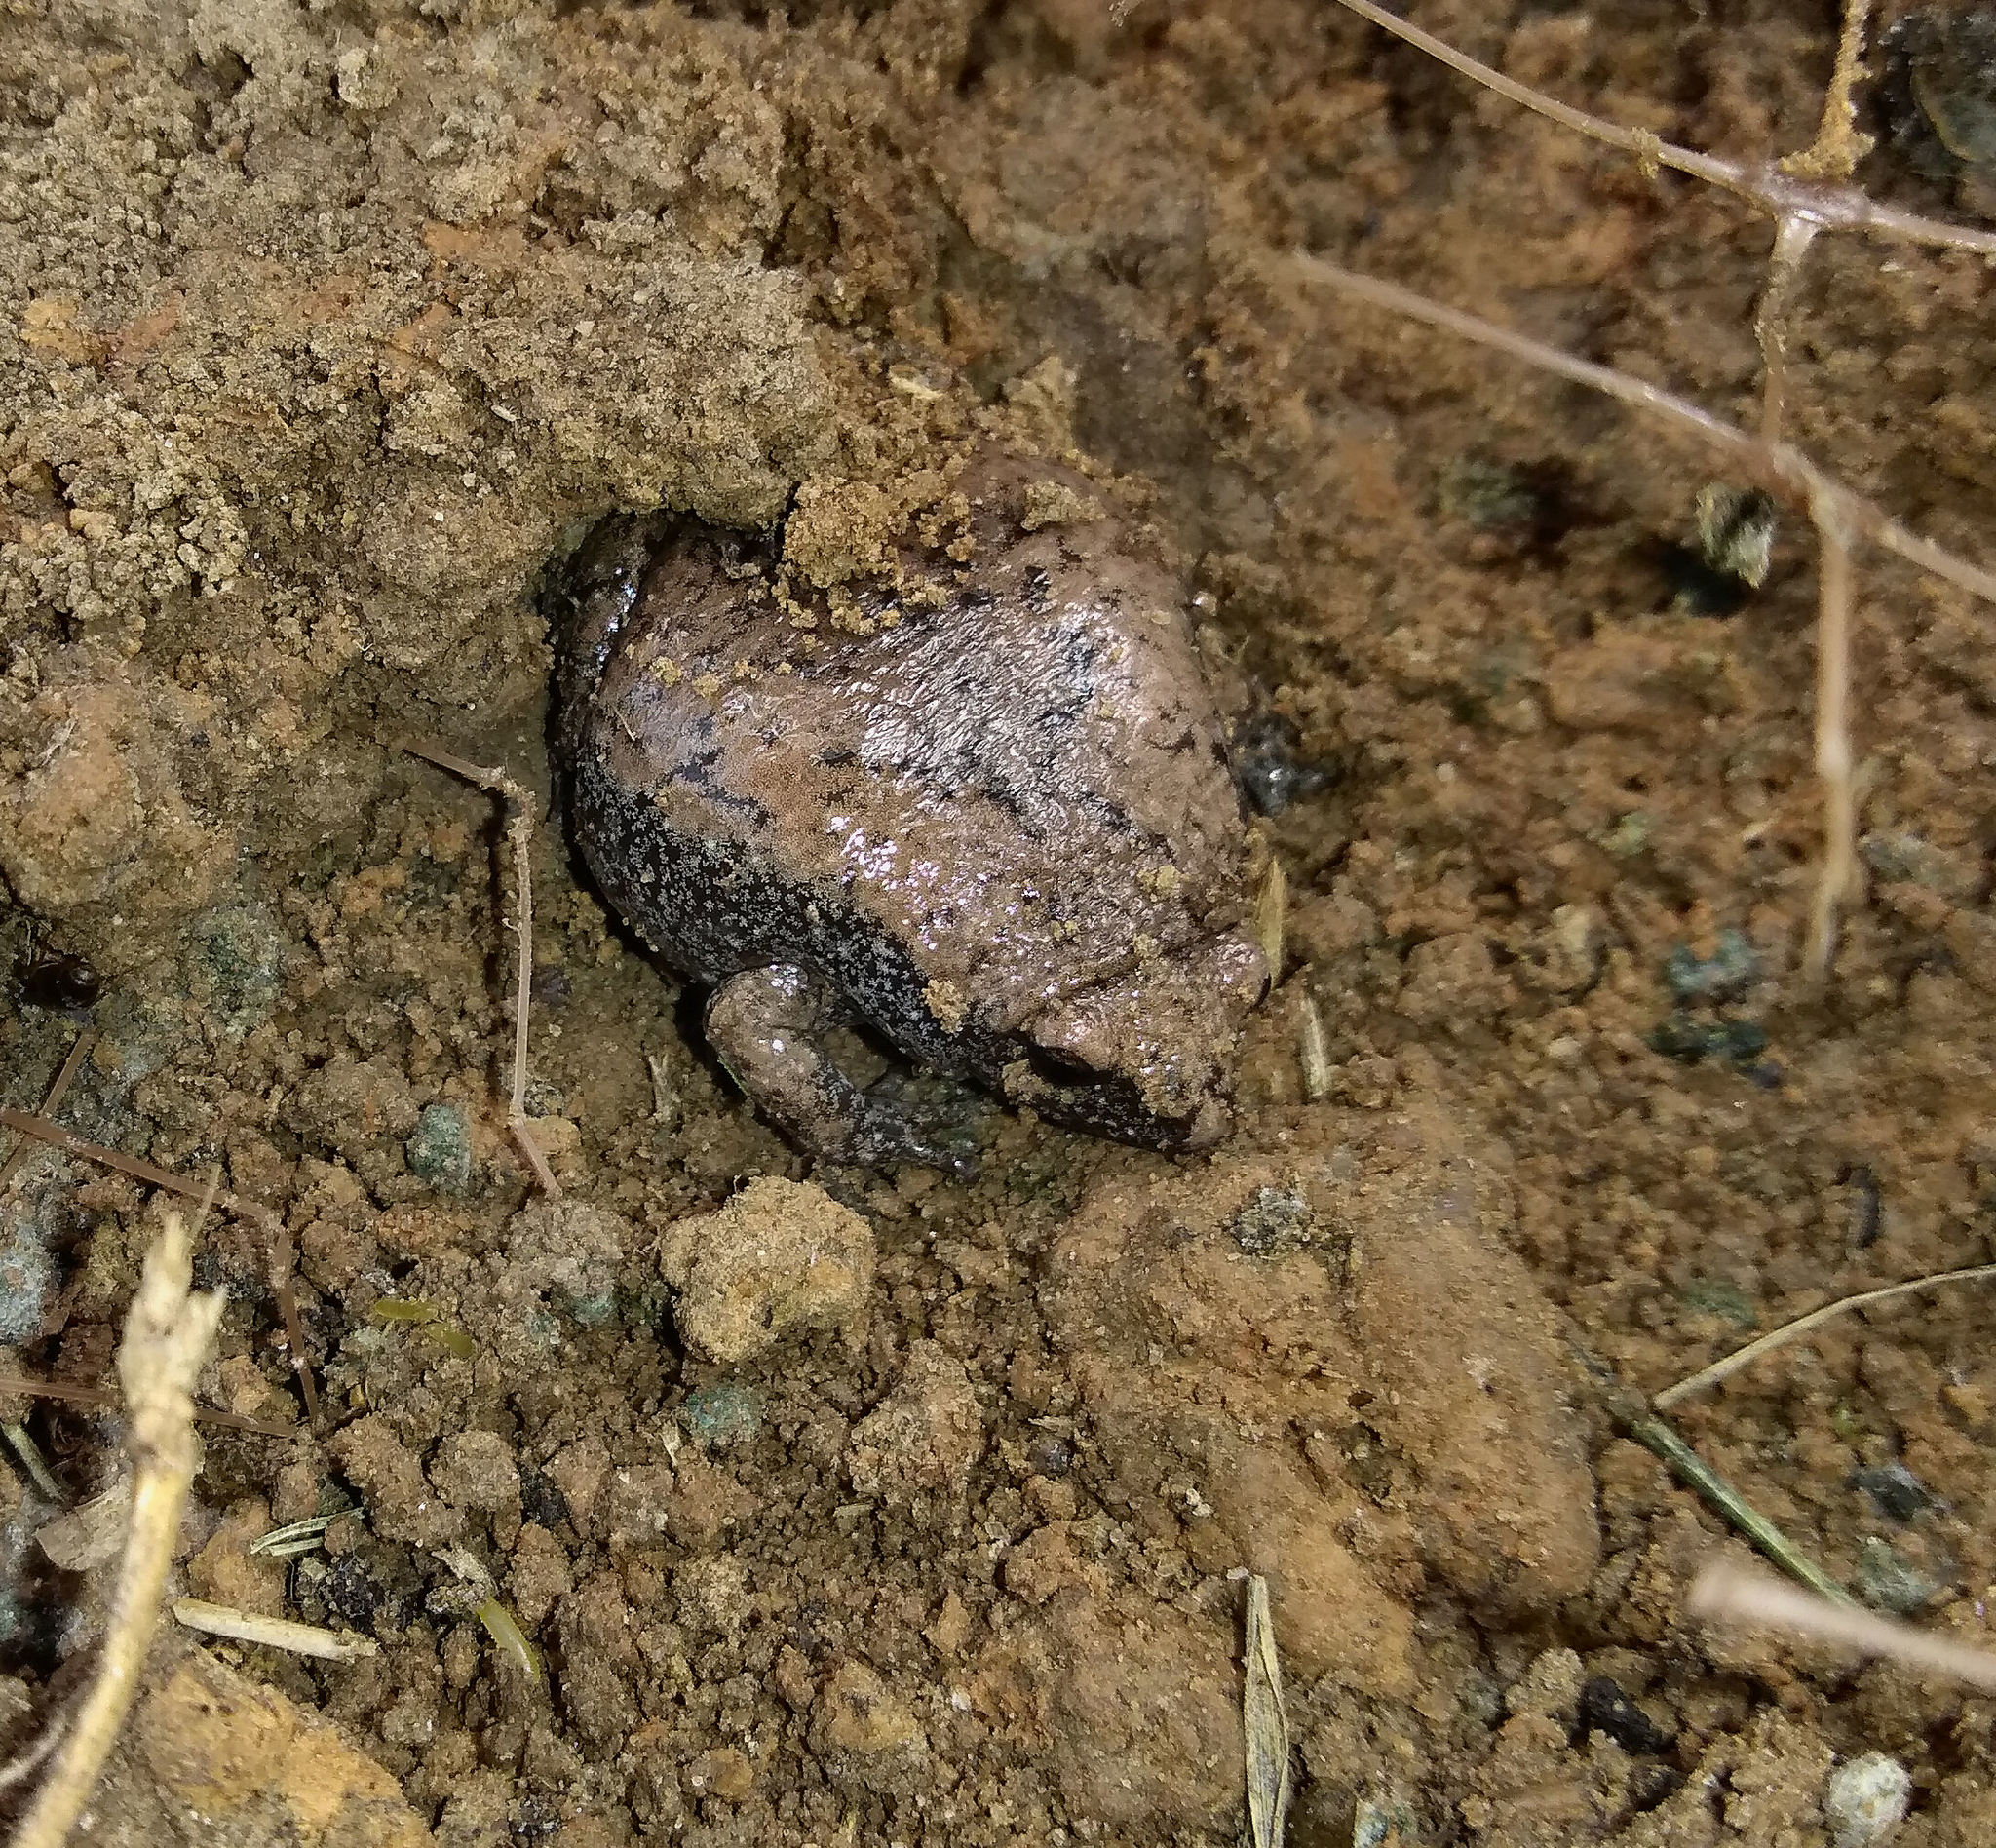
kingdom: Animalia
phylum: Chordata
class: Amphibia
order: Anura
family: Microhylidae
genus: Gastrophryne
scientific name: Gastrophryne carolinensis
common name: Eastern narrowmouth toad
